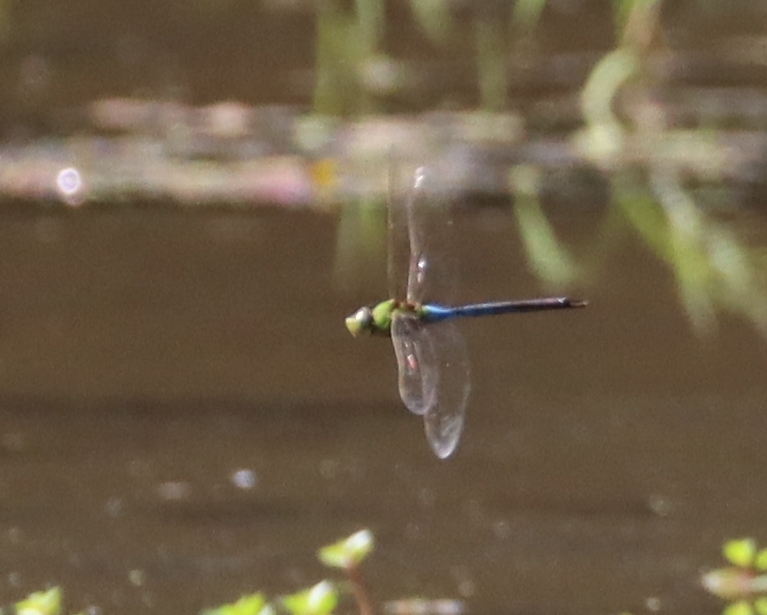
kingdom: Animalia
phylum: Arthropoda
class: Insecta
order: Odonata
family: Aeshnidae
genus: Anax
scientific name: Anax junius
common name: Common green darner
